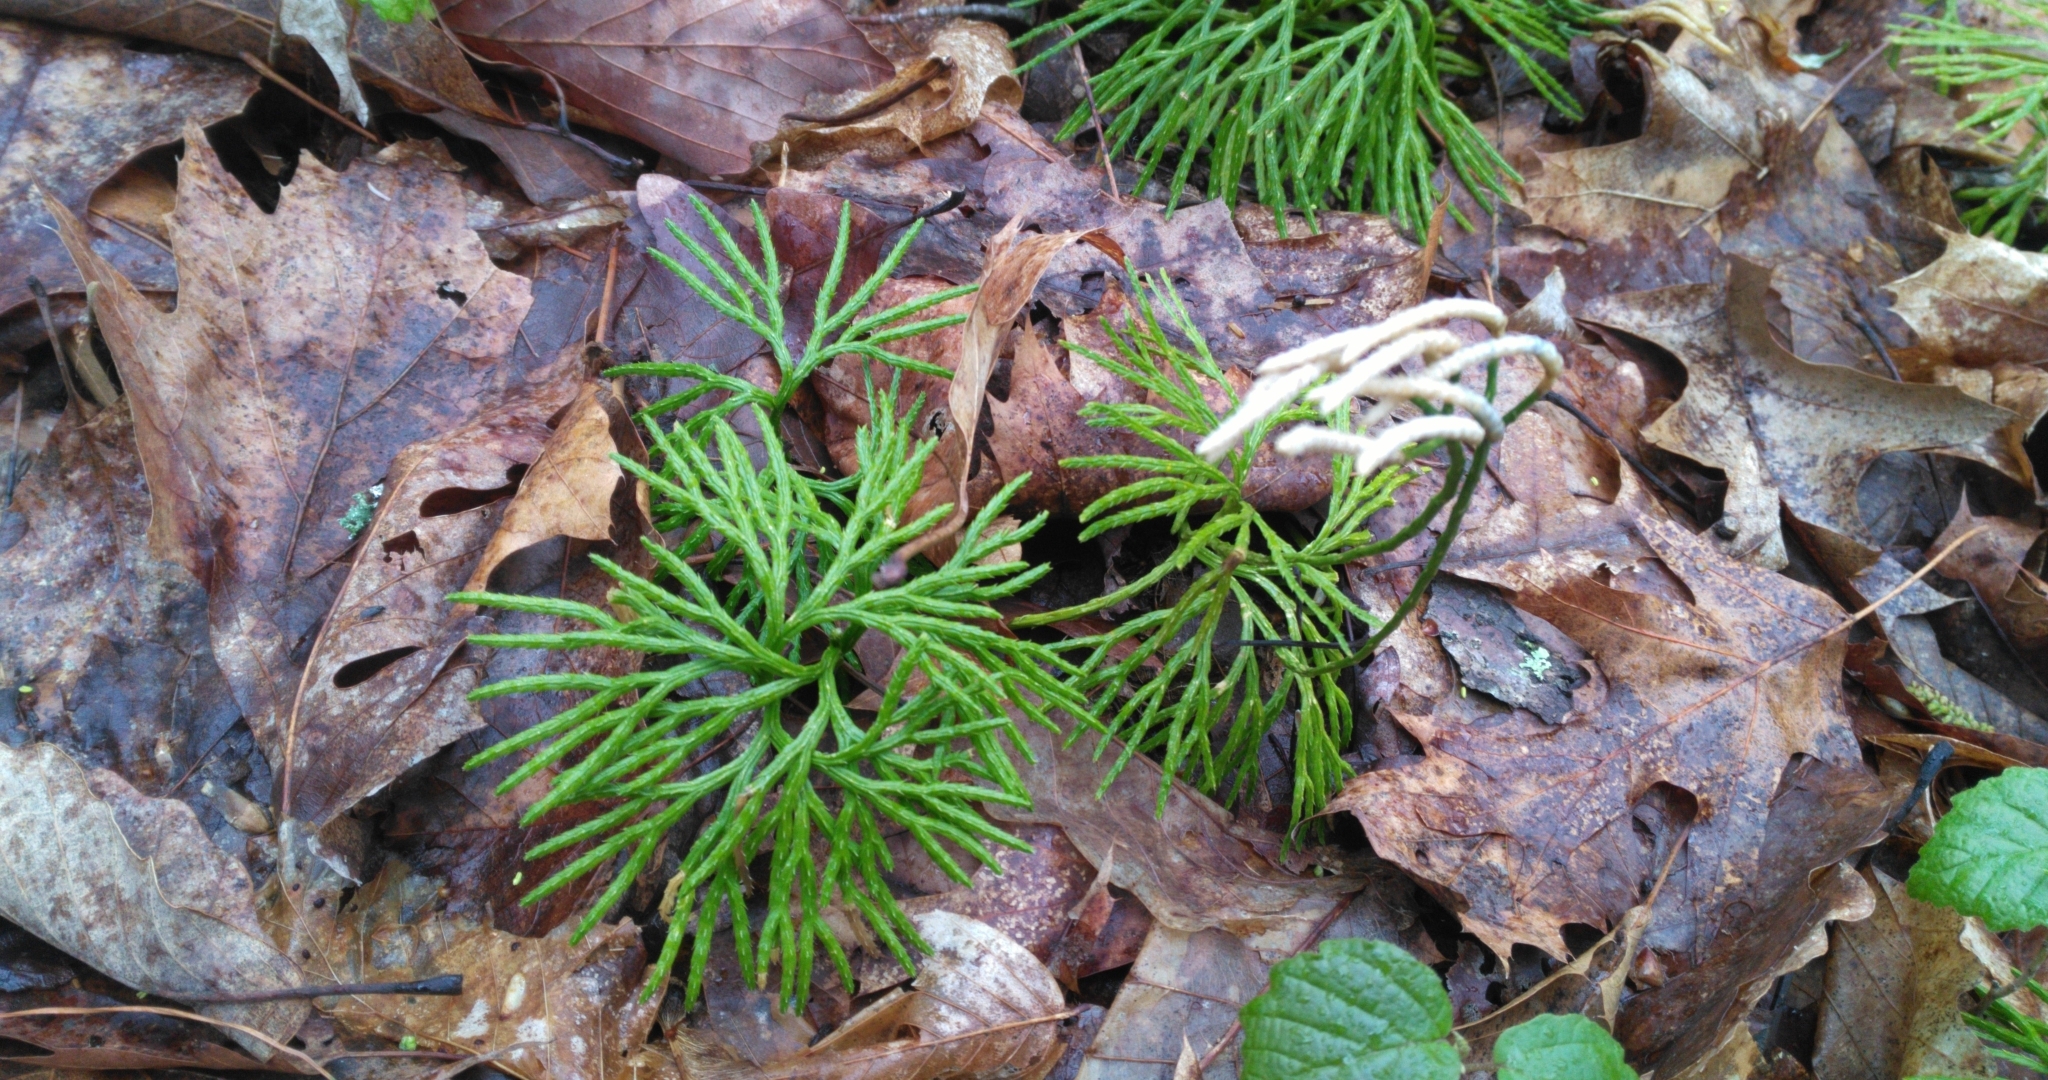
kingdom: Plantae
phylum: Tracheophyta
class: Lycopodiopsida
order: Lycopodiales
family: Lycopodiaceae
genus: Diphasiastrum
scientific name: Diphasiastrum digitatum
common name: Southern running-pine
